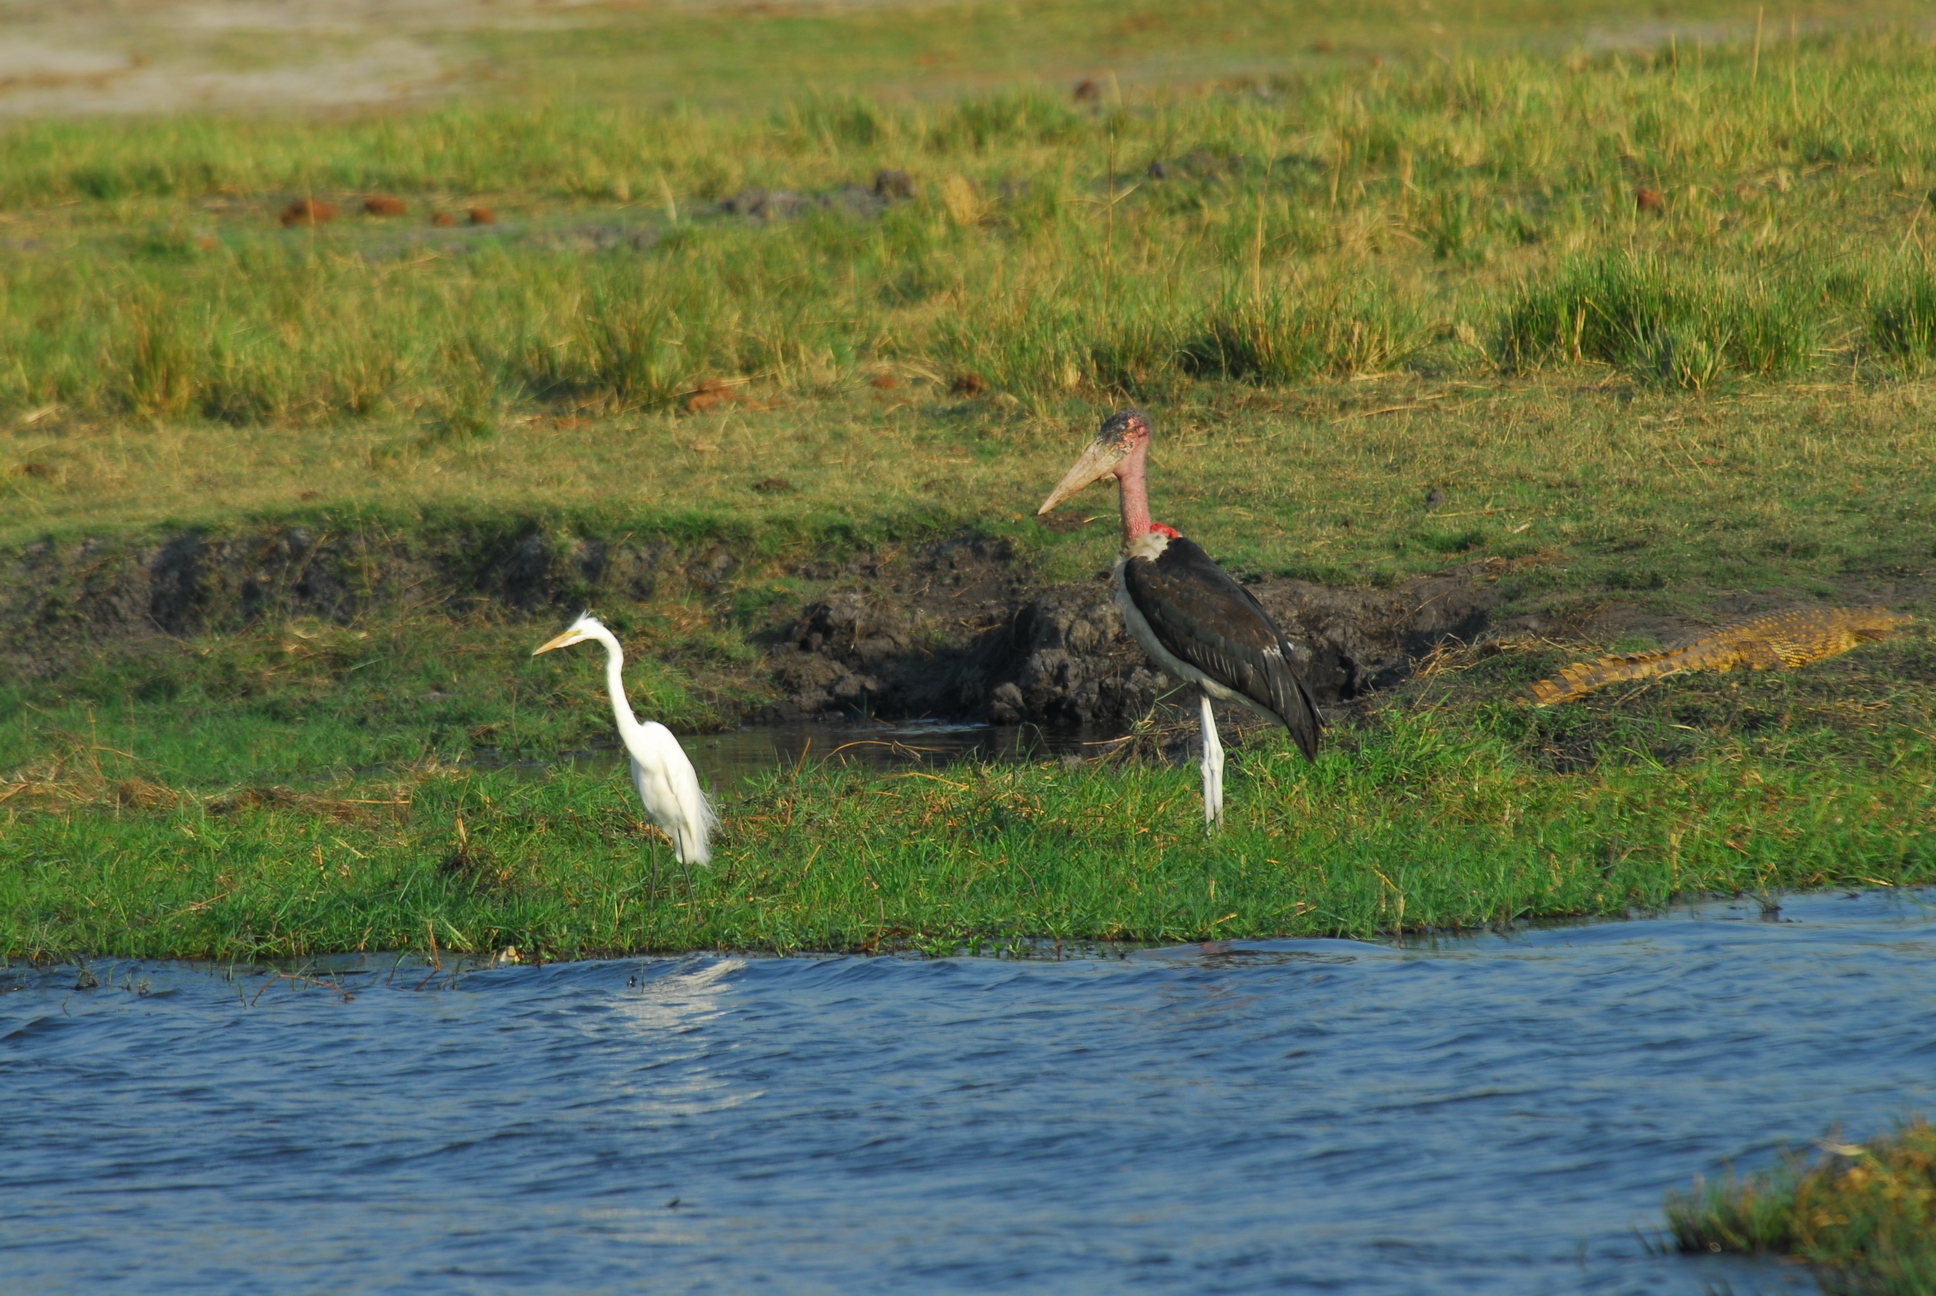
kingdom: Animalia
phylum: Chordata
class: Aves
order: Ciconiiformes
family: Ciconiidae
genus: Leptoptilos
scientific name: Leptoptilos crumenifer
